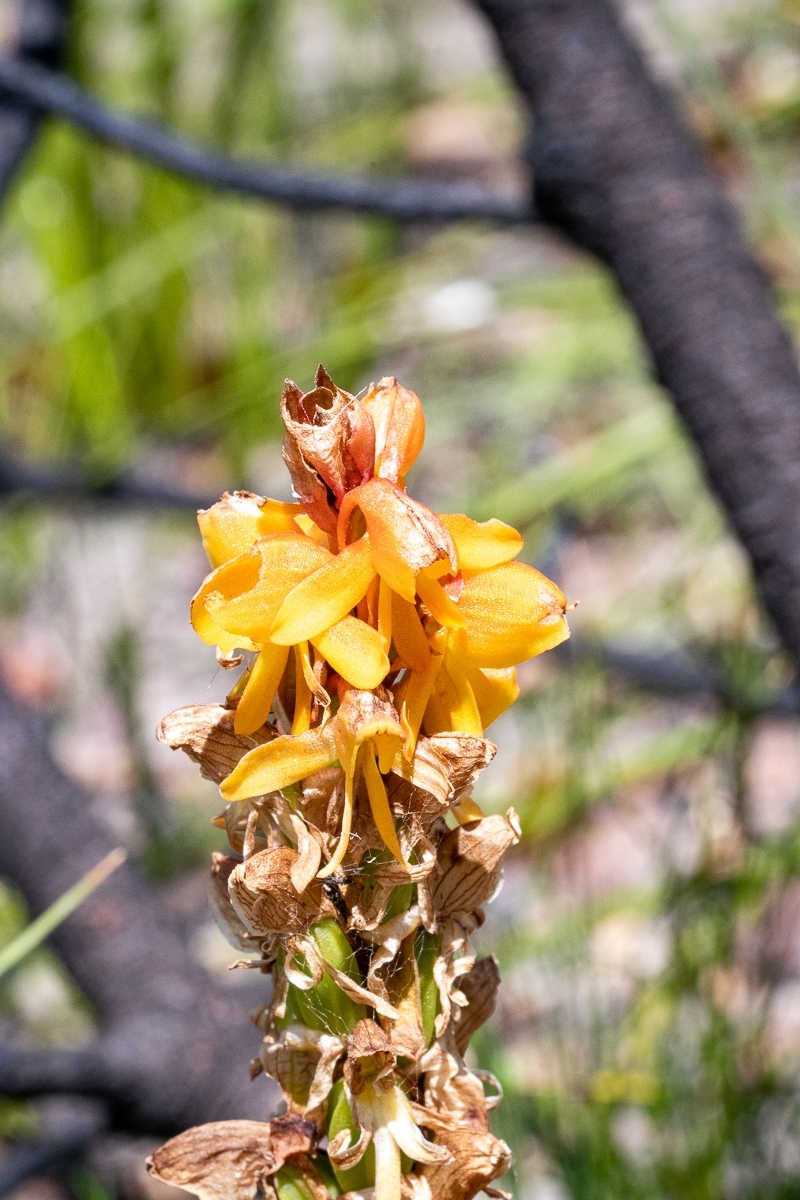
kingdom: Plantae
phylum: Tracheophyta
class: Liliopsida
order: Asparagales
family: Orchidaceae
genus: Satyrium
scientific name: Satyrium coriifolium
